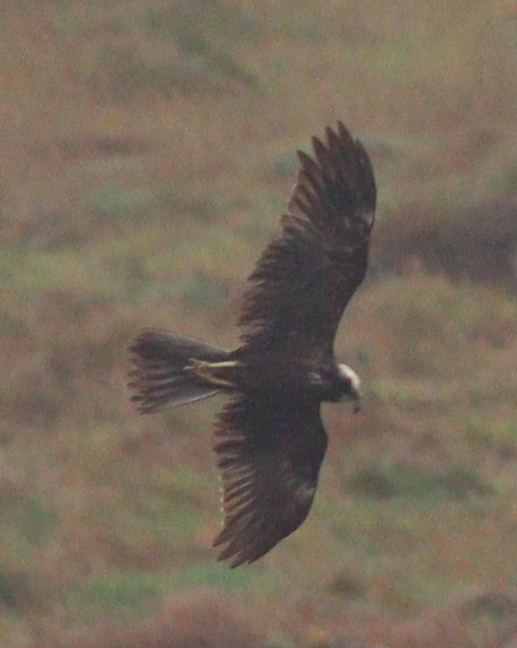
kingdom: Animalia
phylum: Chordata
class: Aves
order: Accipitriformes
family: Accipitridae
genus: Circus
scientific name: Circus aeruginosus
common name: Western marsh harrier
